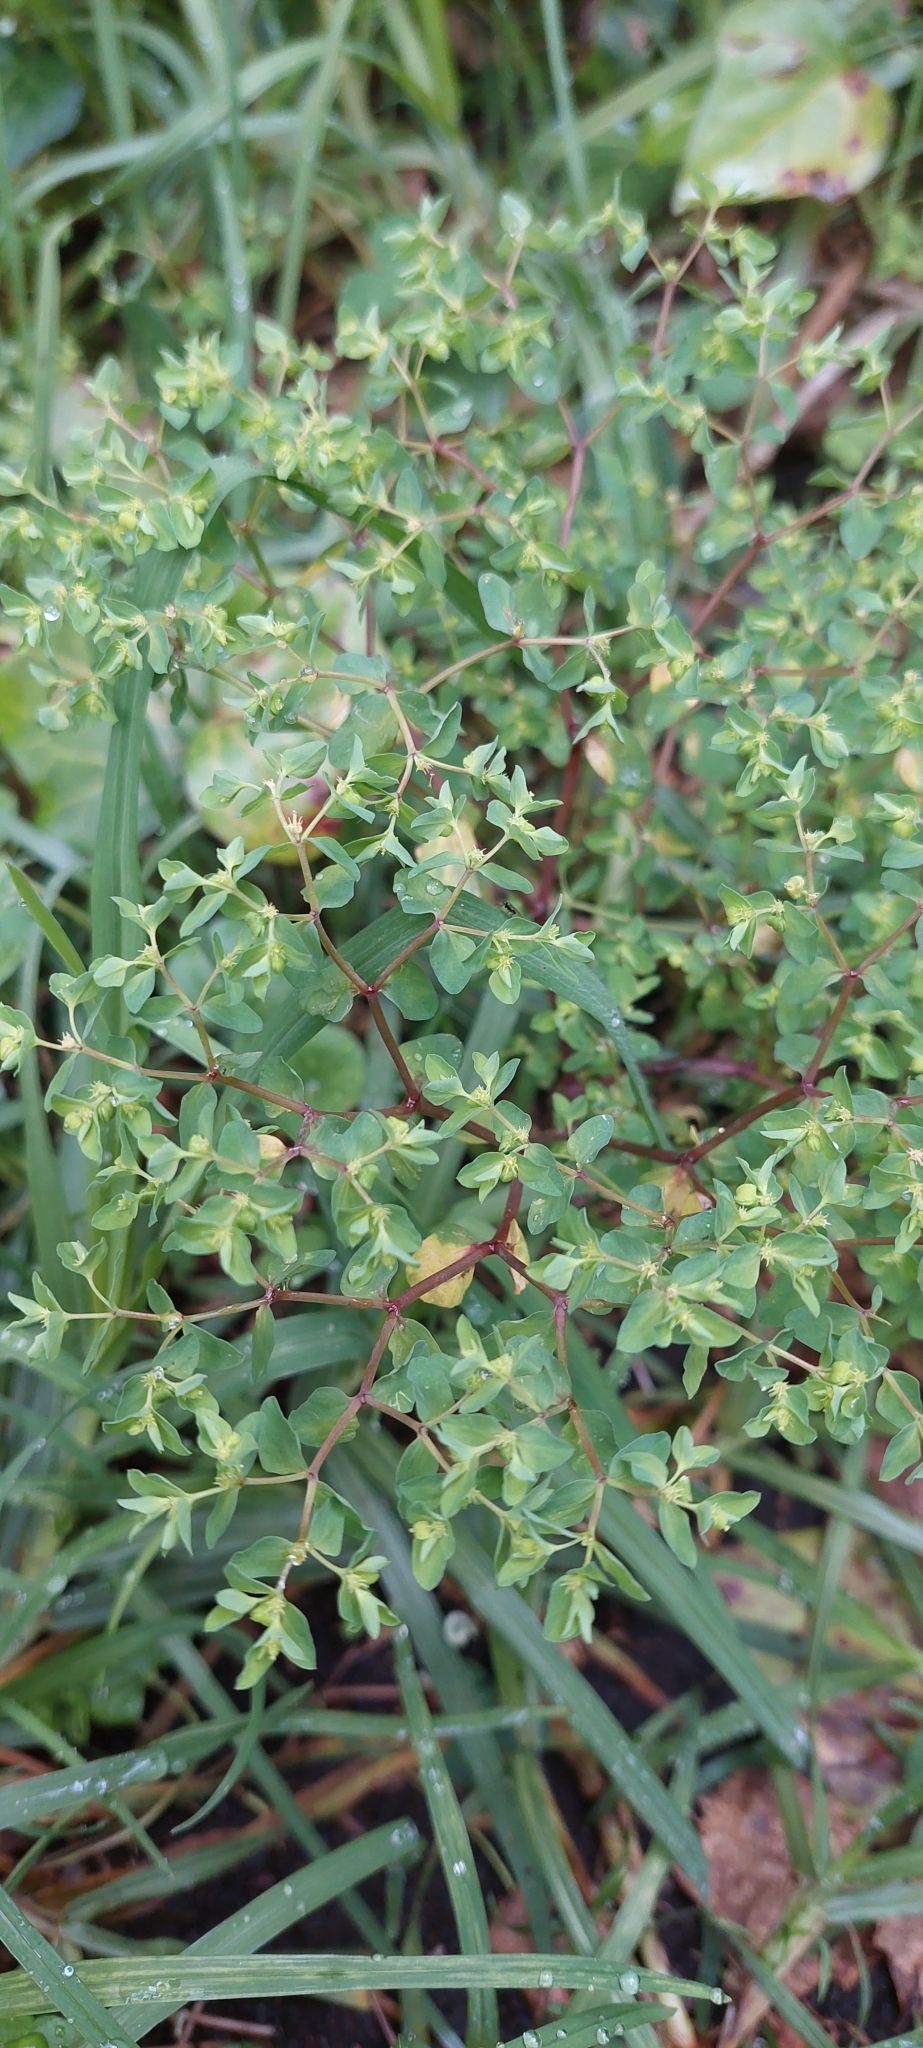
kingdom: Plantae
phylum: Tracheophyta
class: Magnoliopsida
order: Malpighiales
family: Euphorbiaceae
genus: Euphorbia
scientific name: Euphorbia peplus
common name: Petty spurge
